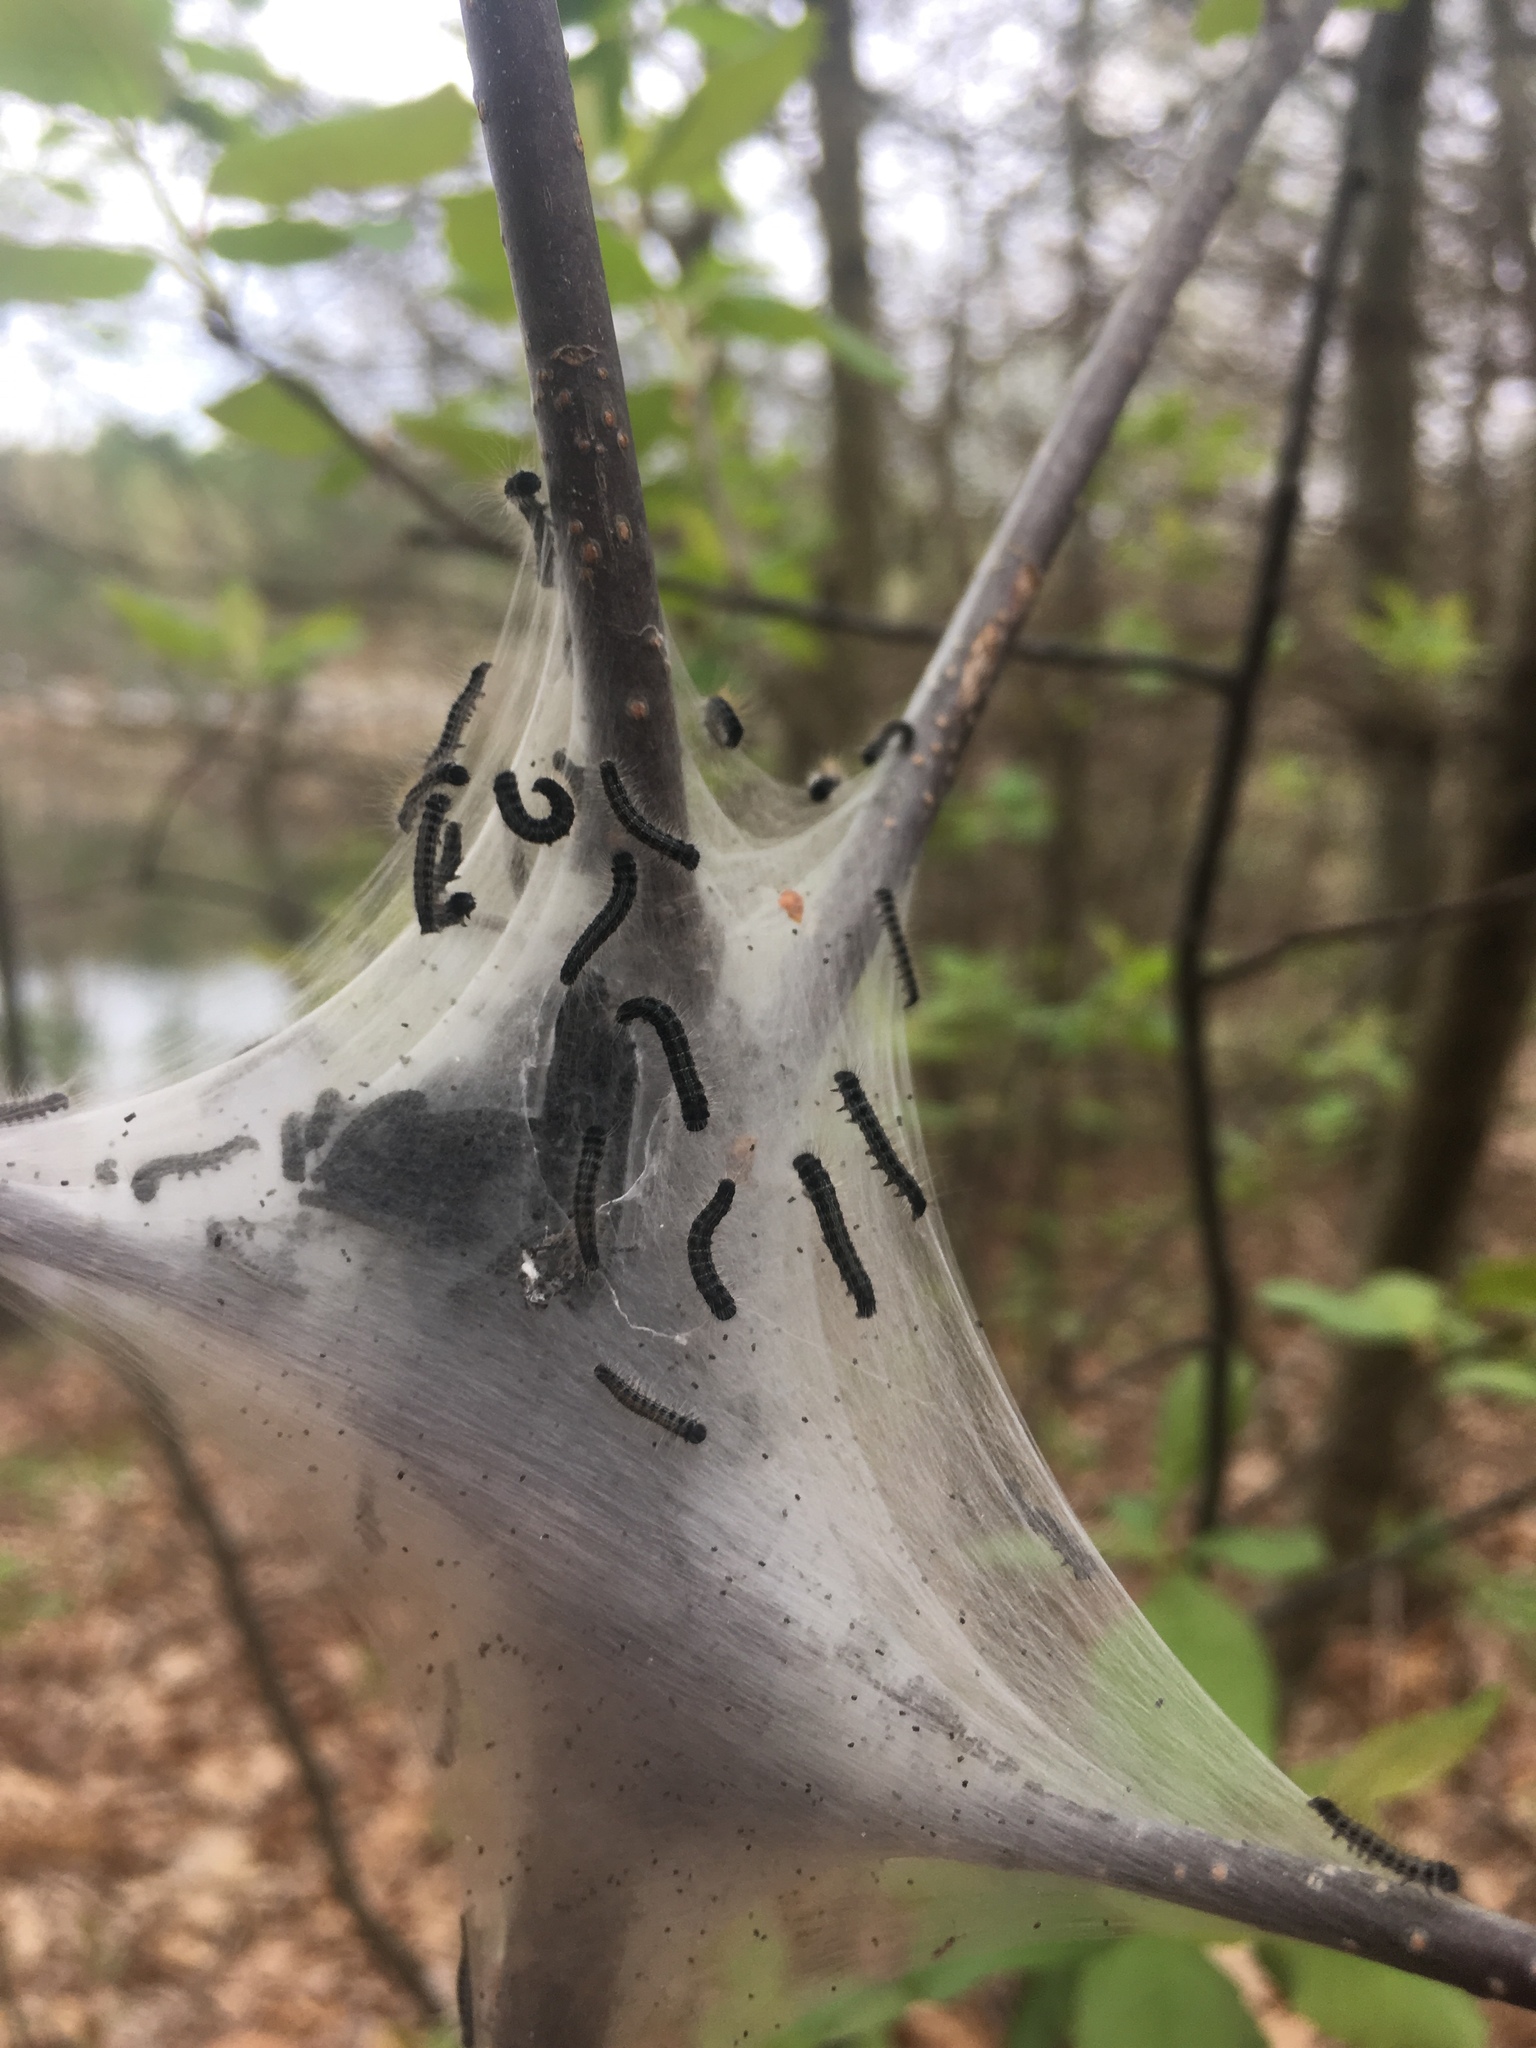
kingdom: Animalia
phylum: Arthropoda
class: Insecta
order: Lepidoptera
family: Lasiocampidae
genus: Malacosoma
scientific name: Malacosoma americana
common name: Eastern tent caterpillar moth
